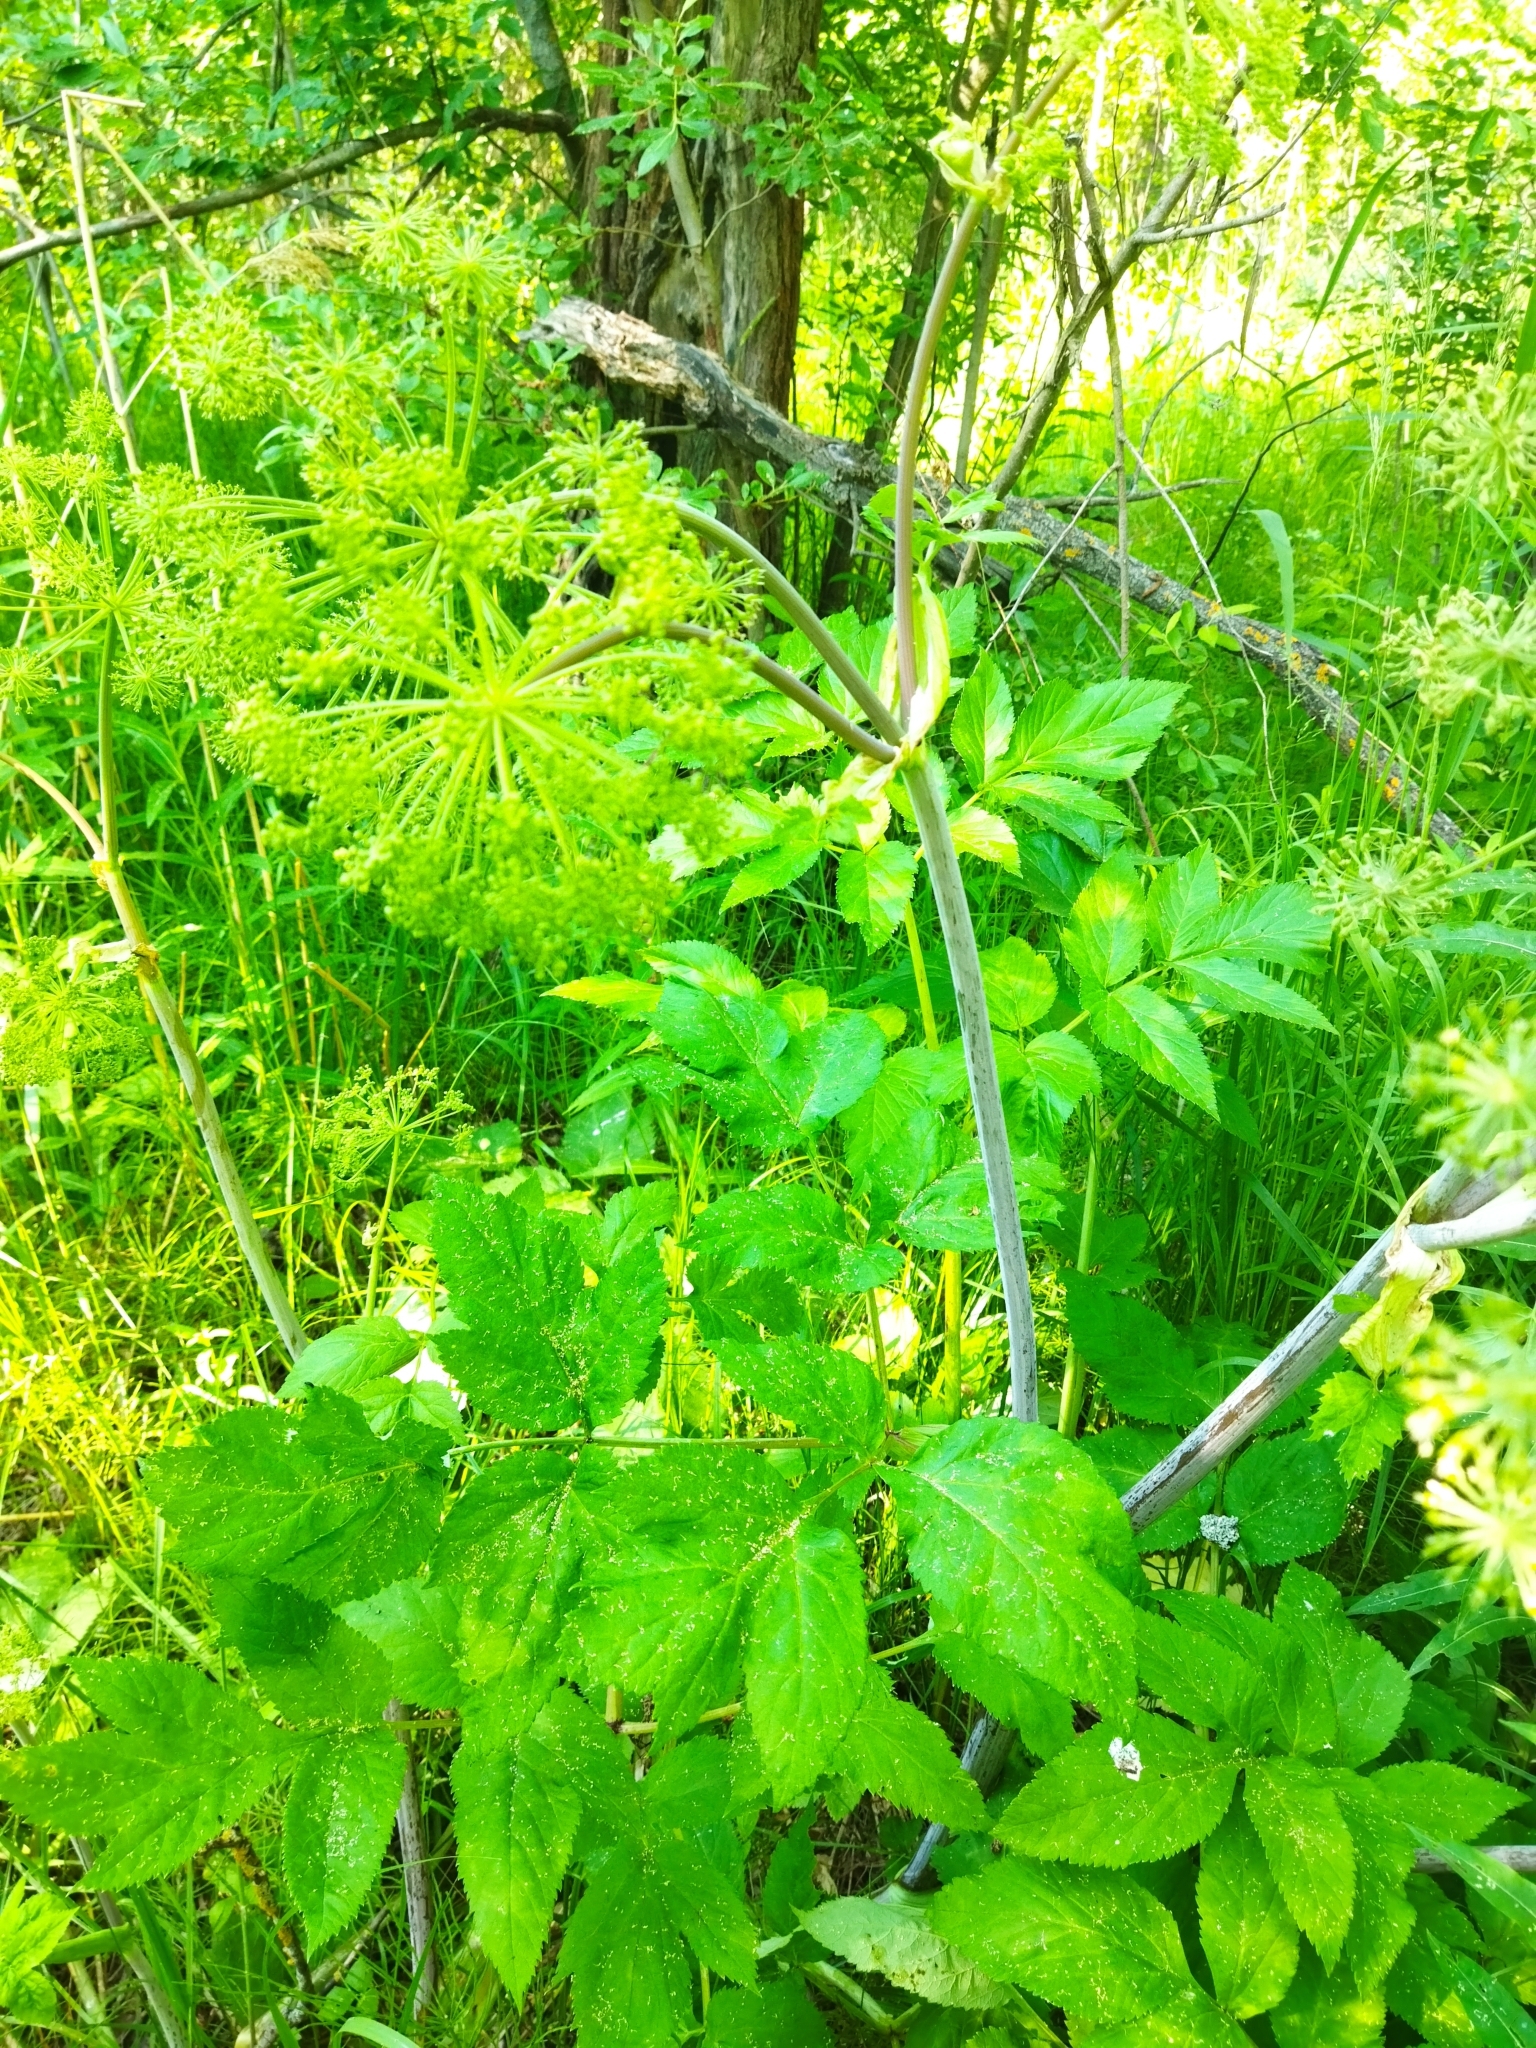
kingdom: Plantae
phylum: Tracheophyta
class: Magnoliopsida
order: Apiales
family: Apiaceae
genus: Angelica
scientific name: Angelica archangelica
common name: Garden angelica
